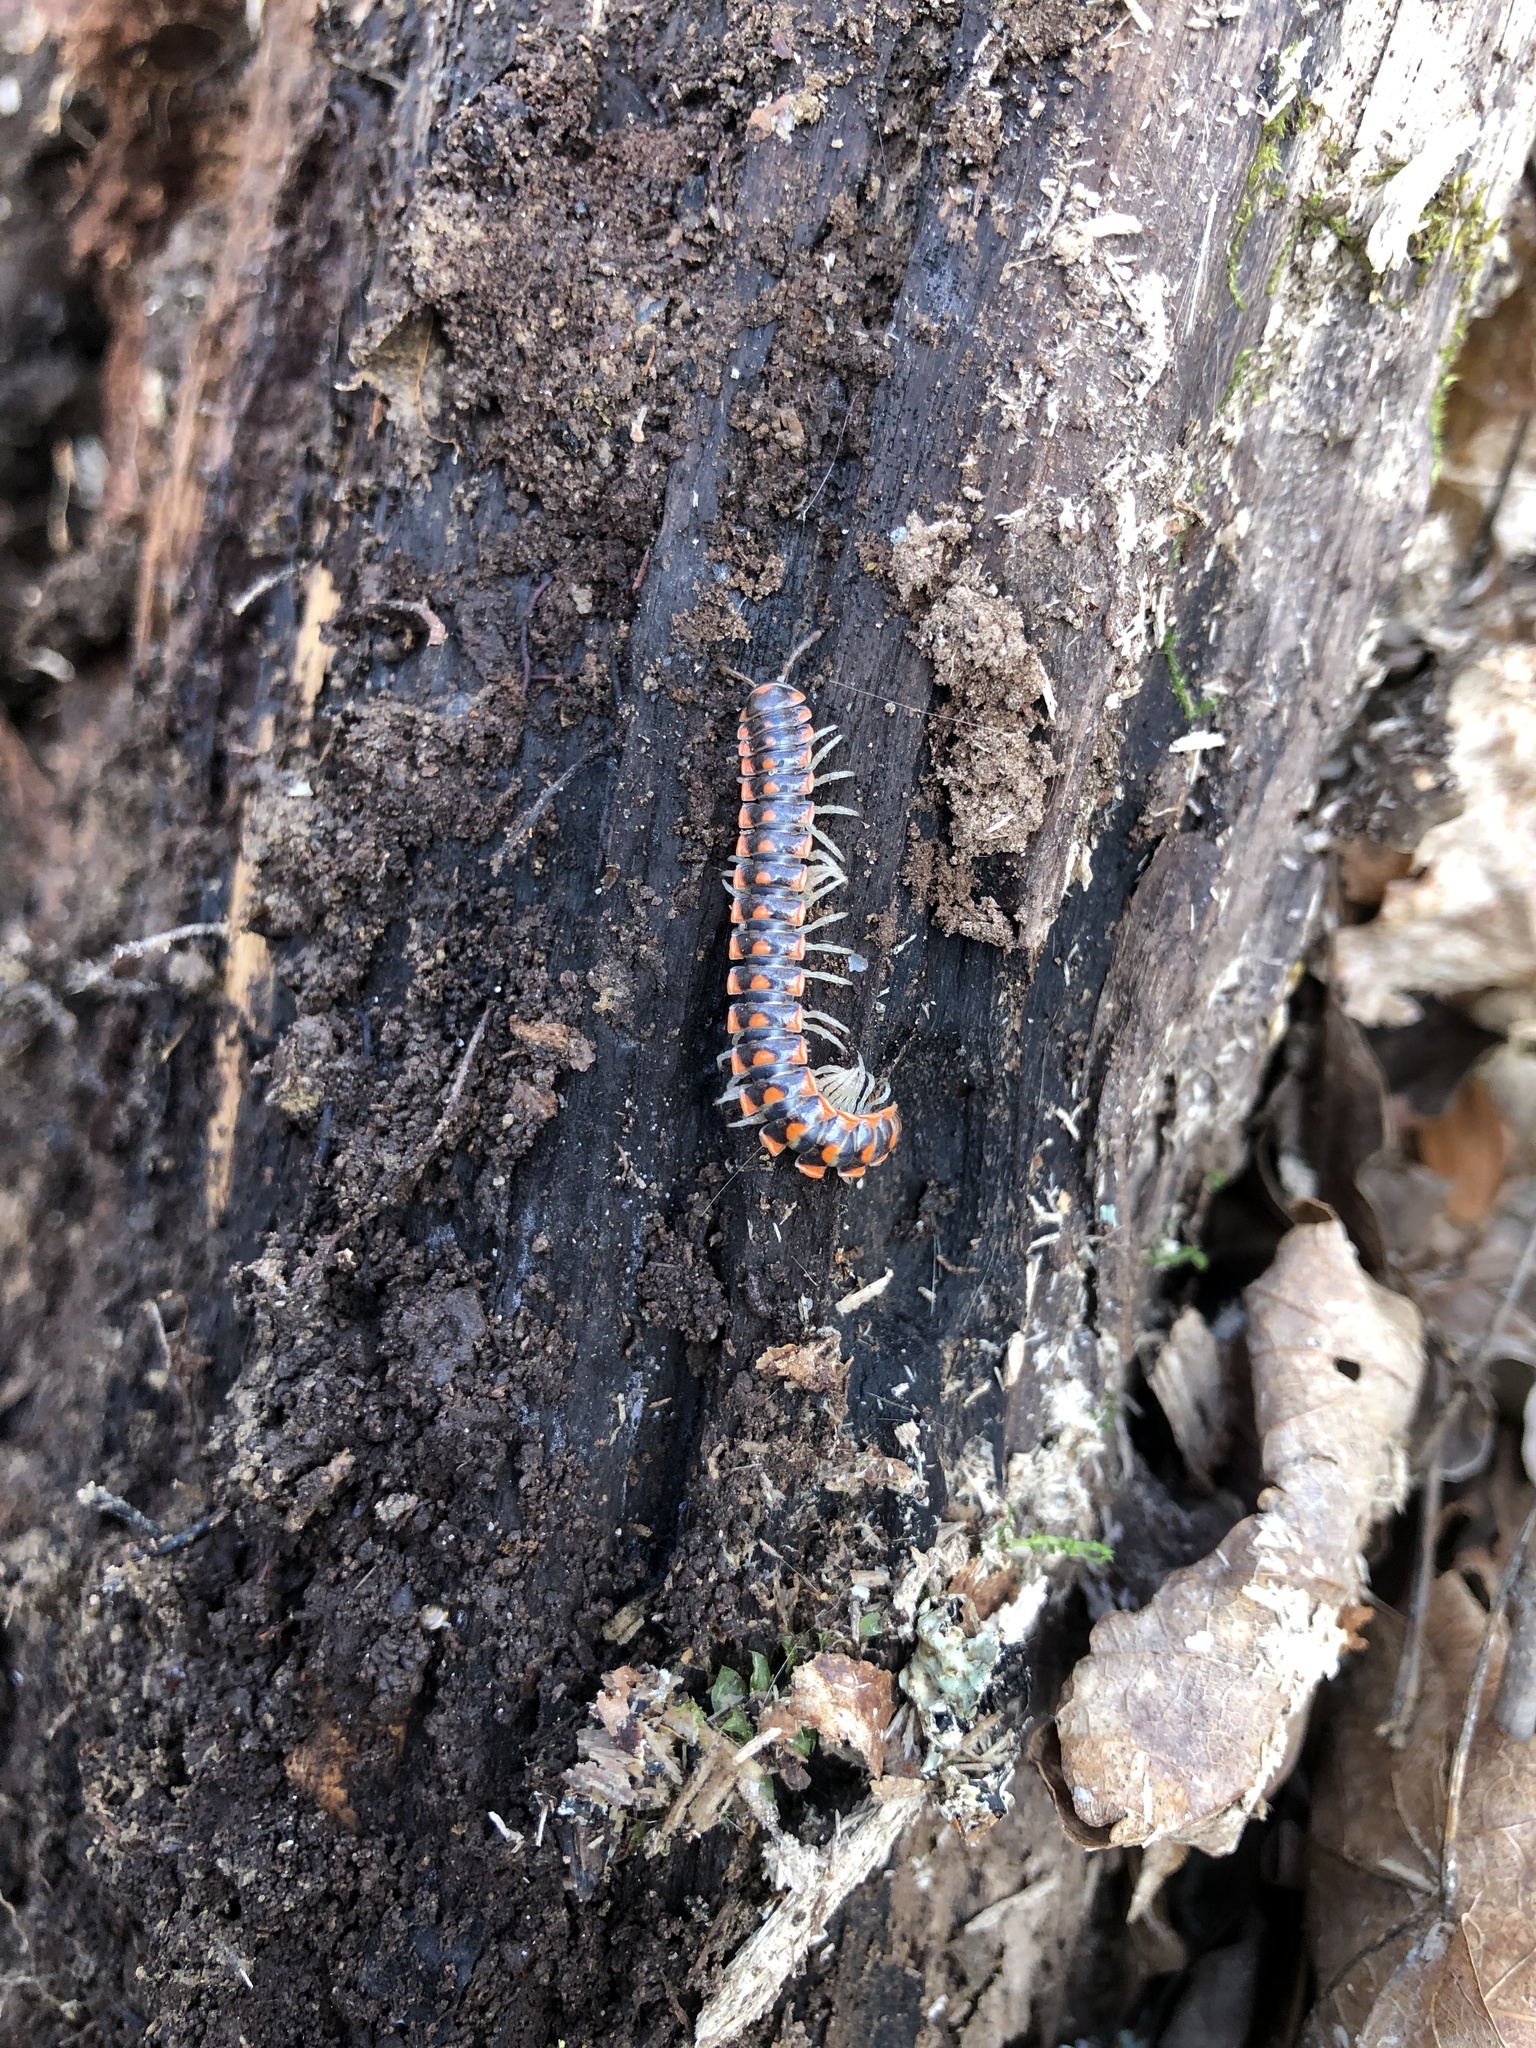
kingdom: Animalia
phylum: Arthropoda
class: Diplopoda
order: Polydesmida
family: Xystodesmidae
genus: Euryurus
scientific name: Euryurus leachii
